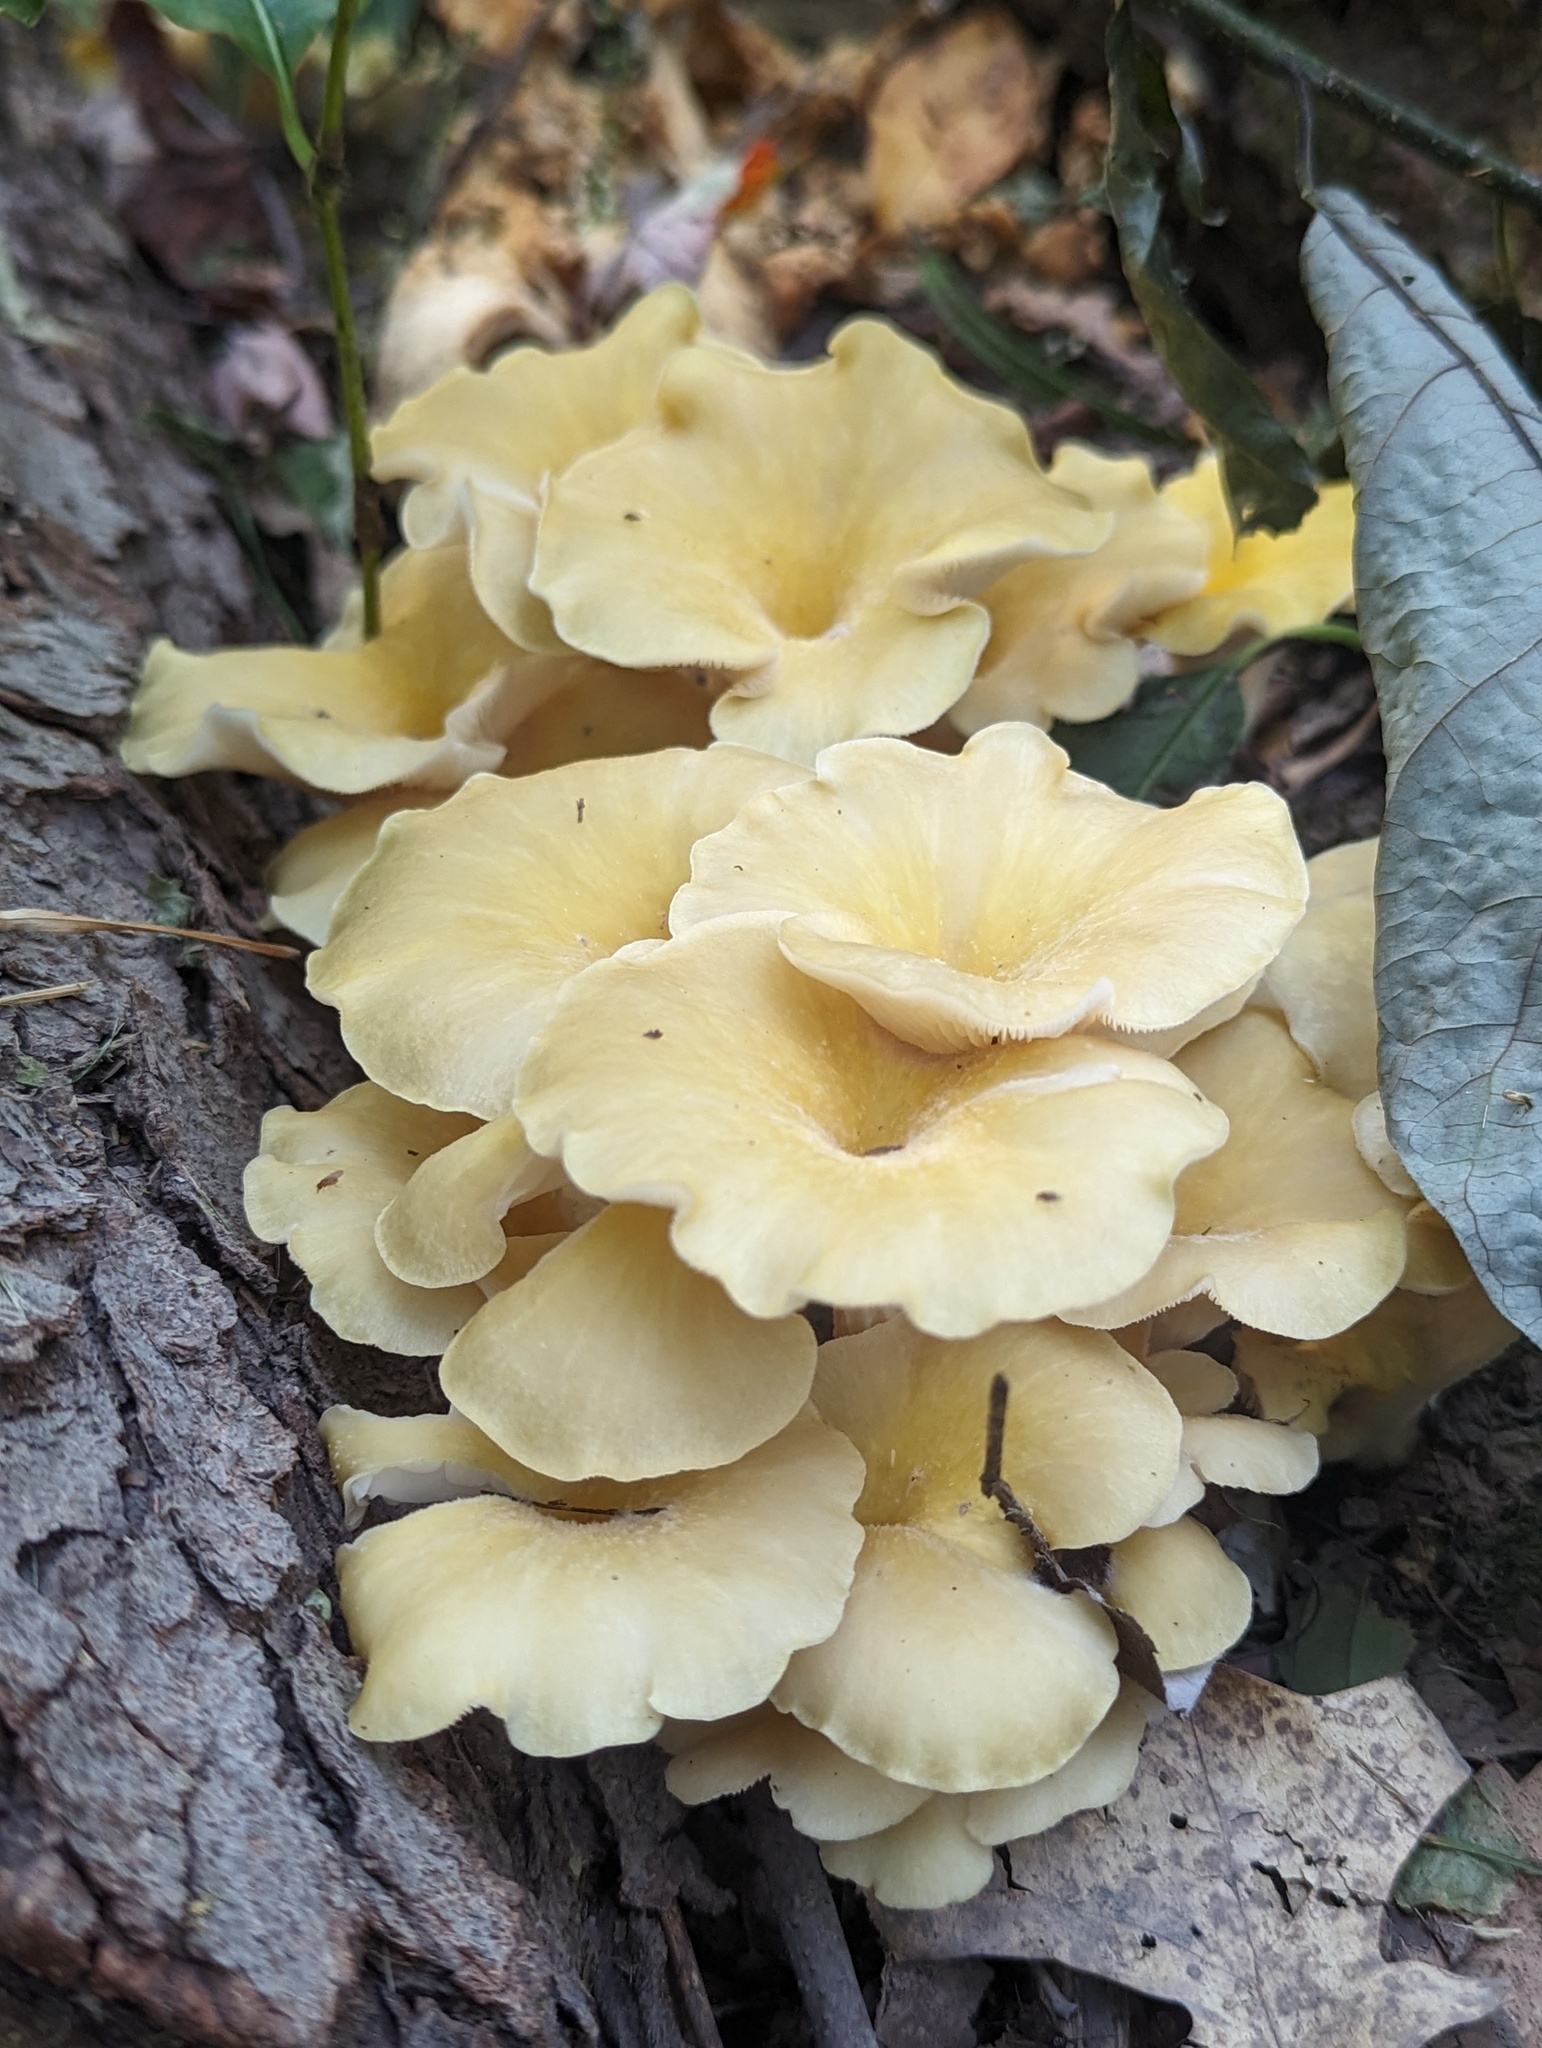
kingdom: Fungi
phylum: Basidiomycota
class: Agaricomycetes
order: Agaricales
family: Pleurotaceae
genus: Pleurotus
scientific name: Pleurotus citrinopileatus
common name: Golden oyster mushroom
